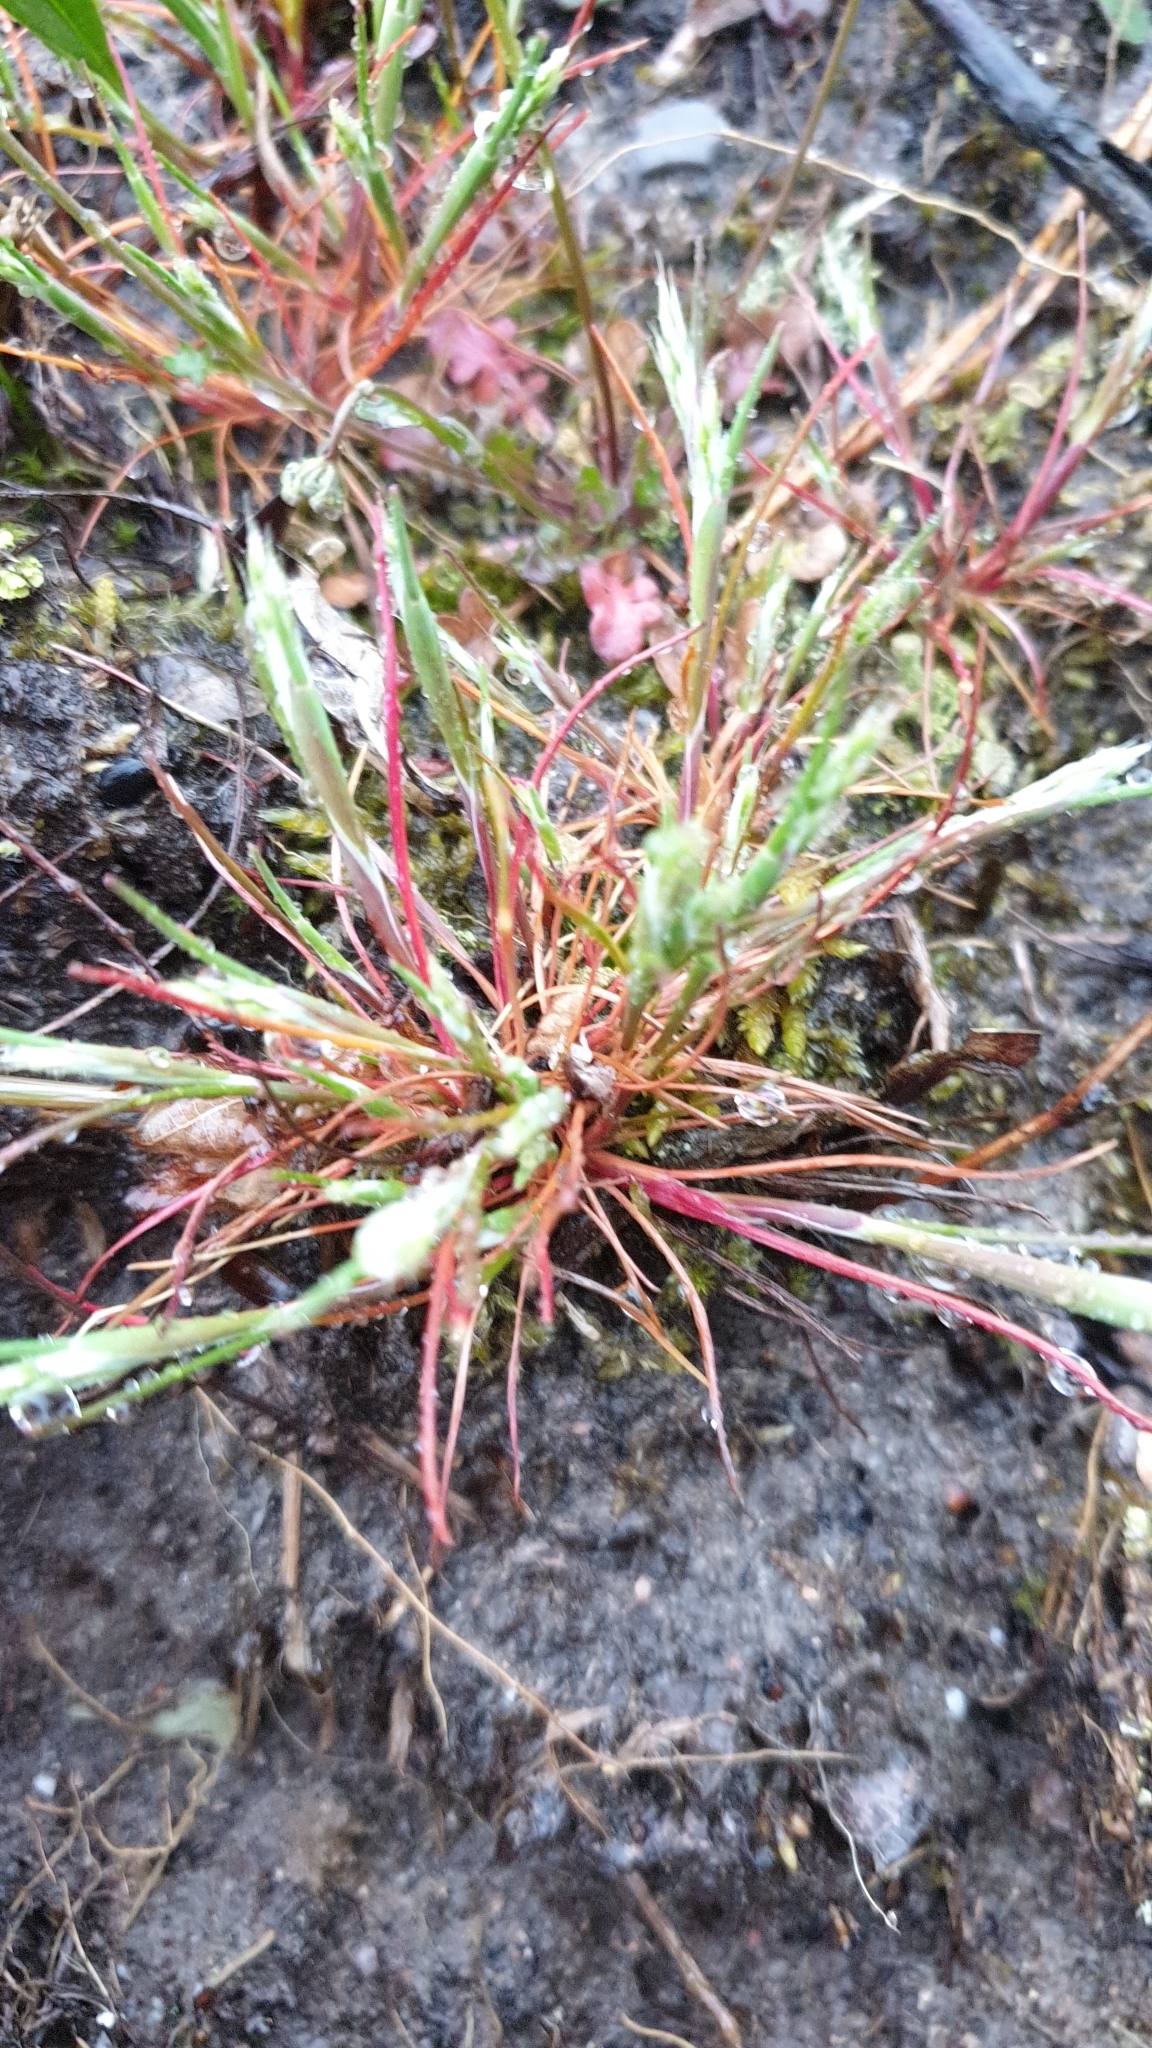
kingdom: Plantae
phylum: Tracheophyta
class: Liliopsida
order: Poales
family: Poaceae
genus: Aira
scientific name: Aira praecox
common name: Early hair-grass
